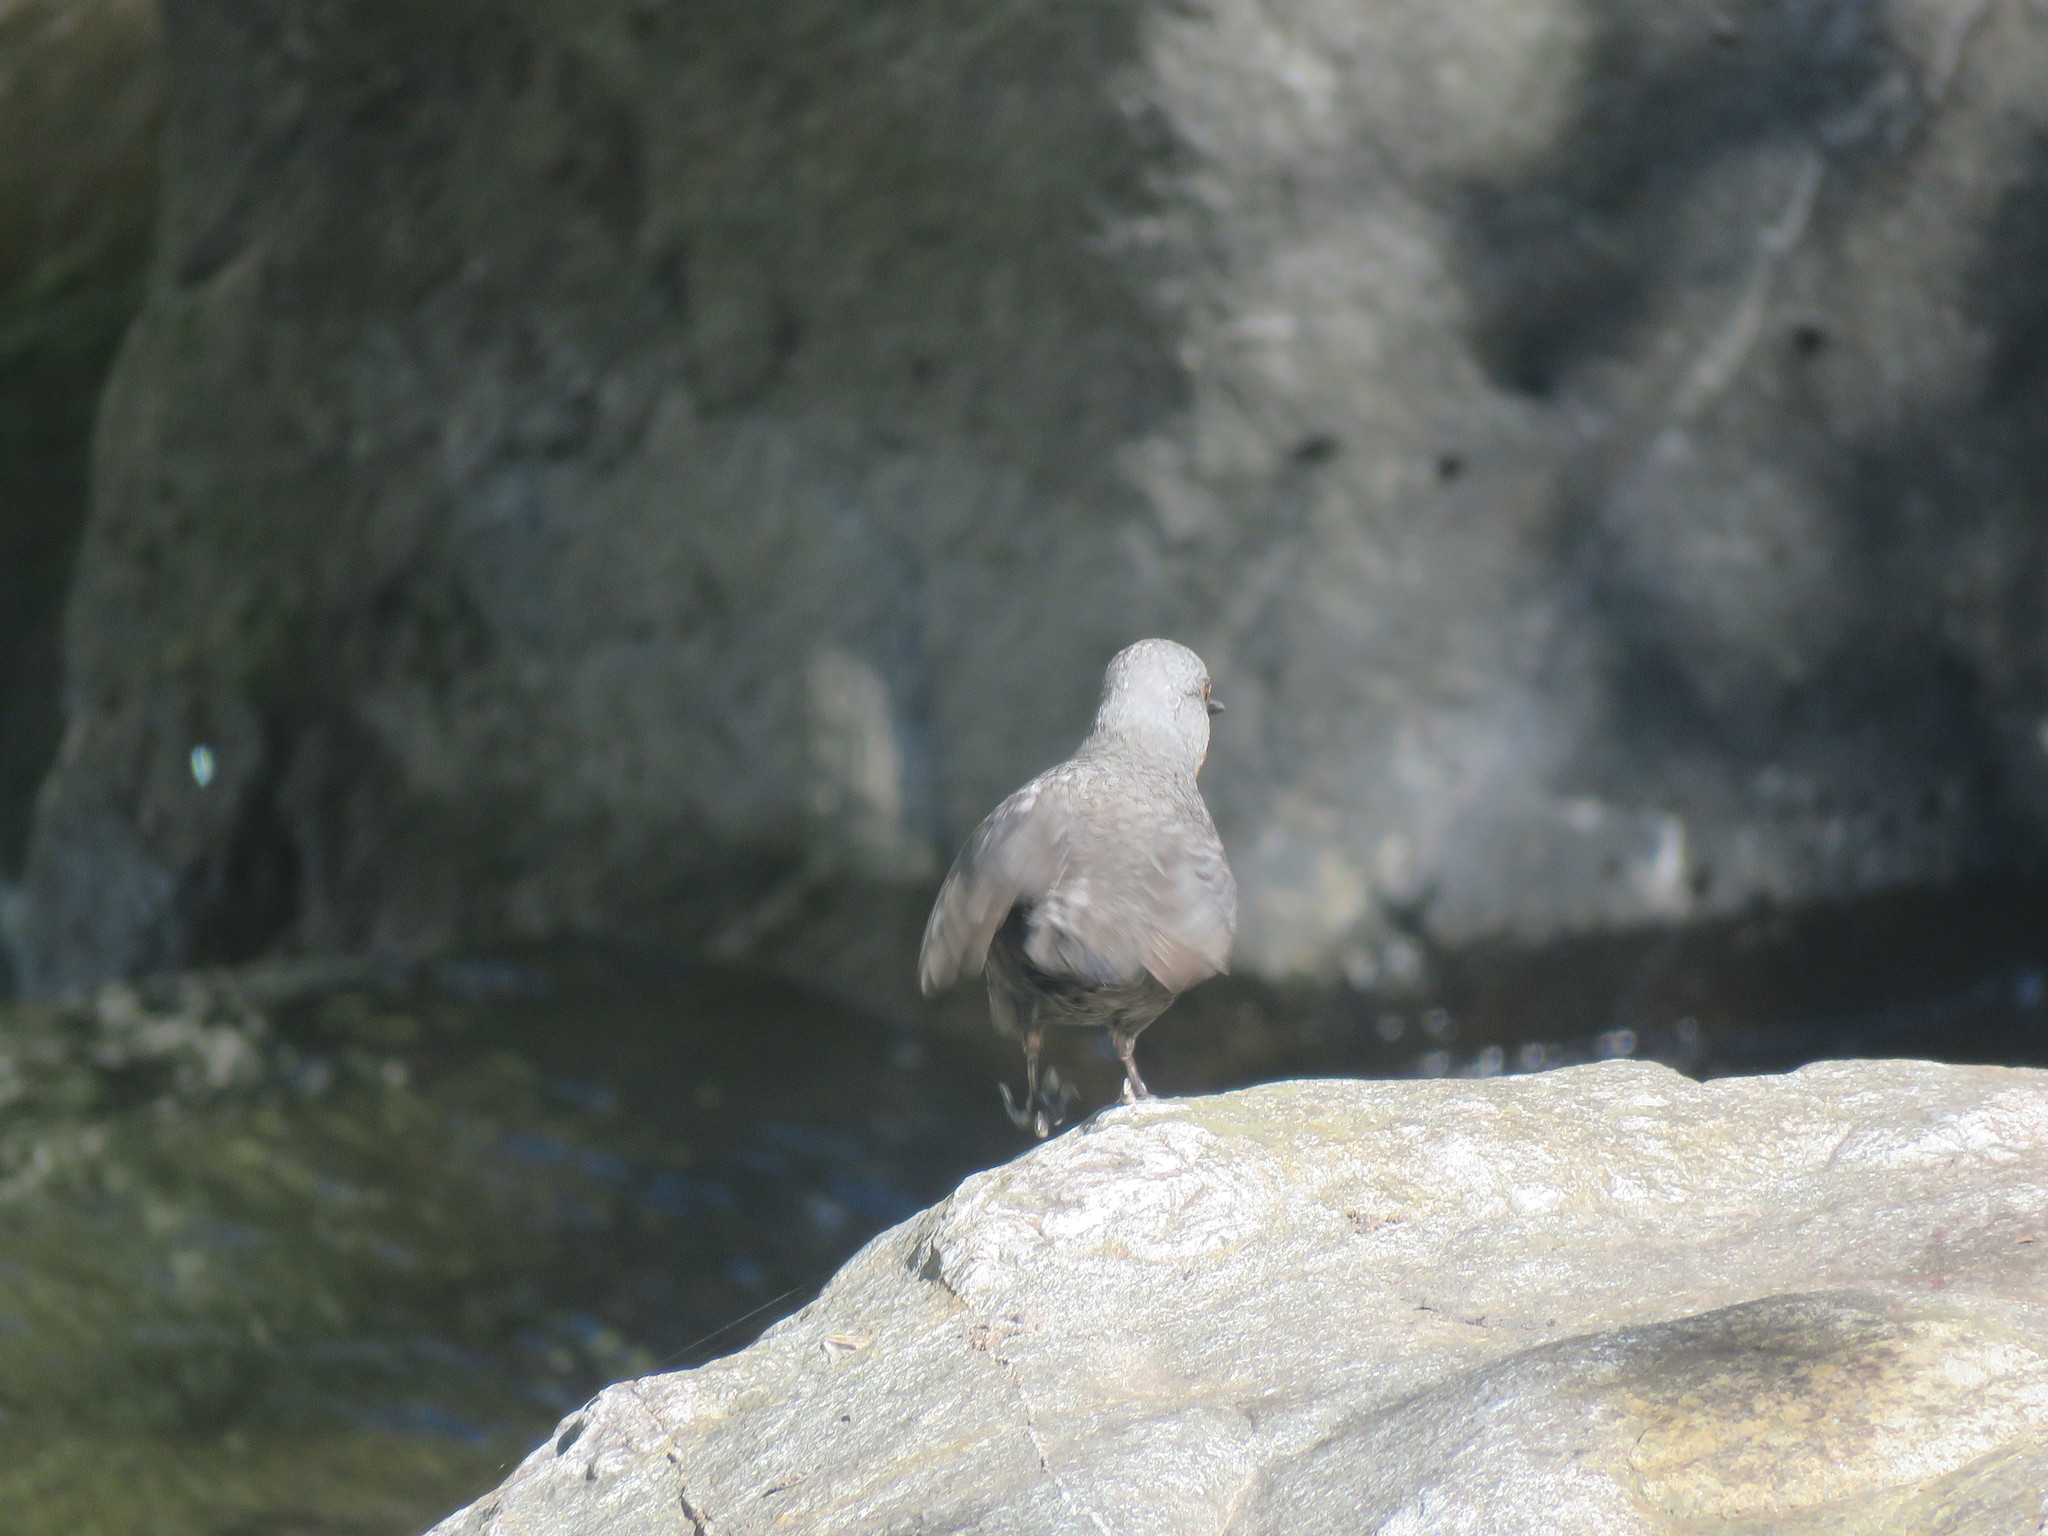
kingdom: Animalia
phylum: Chordata
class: Aves
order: Passeriformes
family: Cinclidae
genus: Cinclus
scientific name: Cinclus schulzii
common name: Rufous-throated dipper
